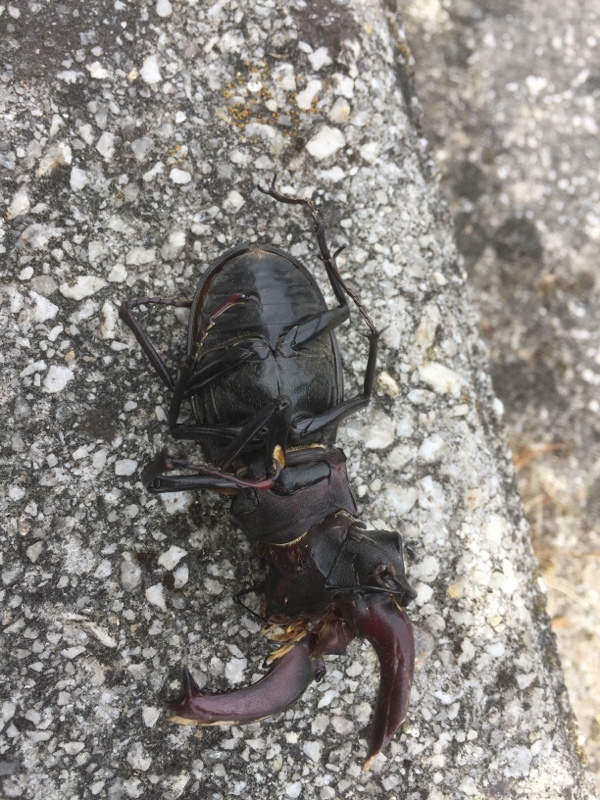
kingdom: Animalia
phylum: Arthropoda
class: Insecta
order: Coleoptera
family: Lucanidae
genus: Lucanus
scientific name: Lucanus cervus
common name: Stag beetle
